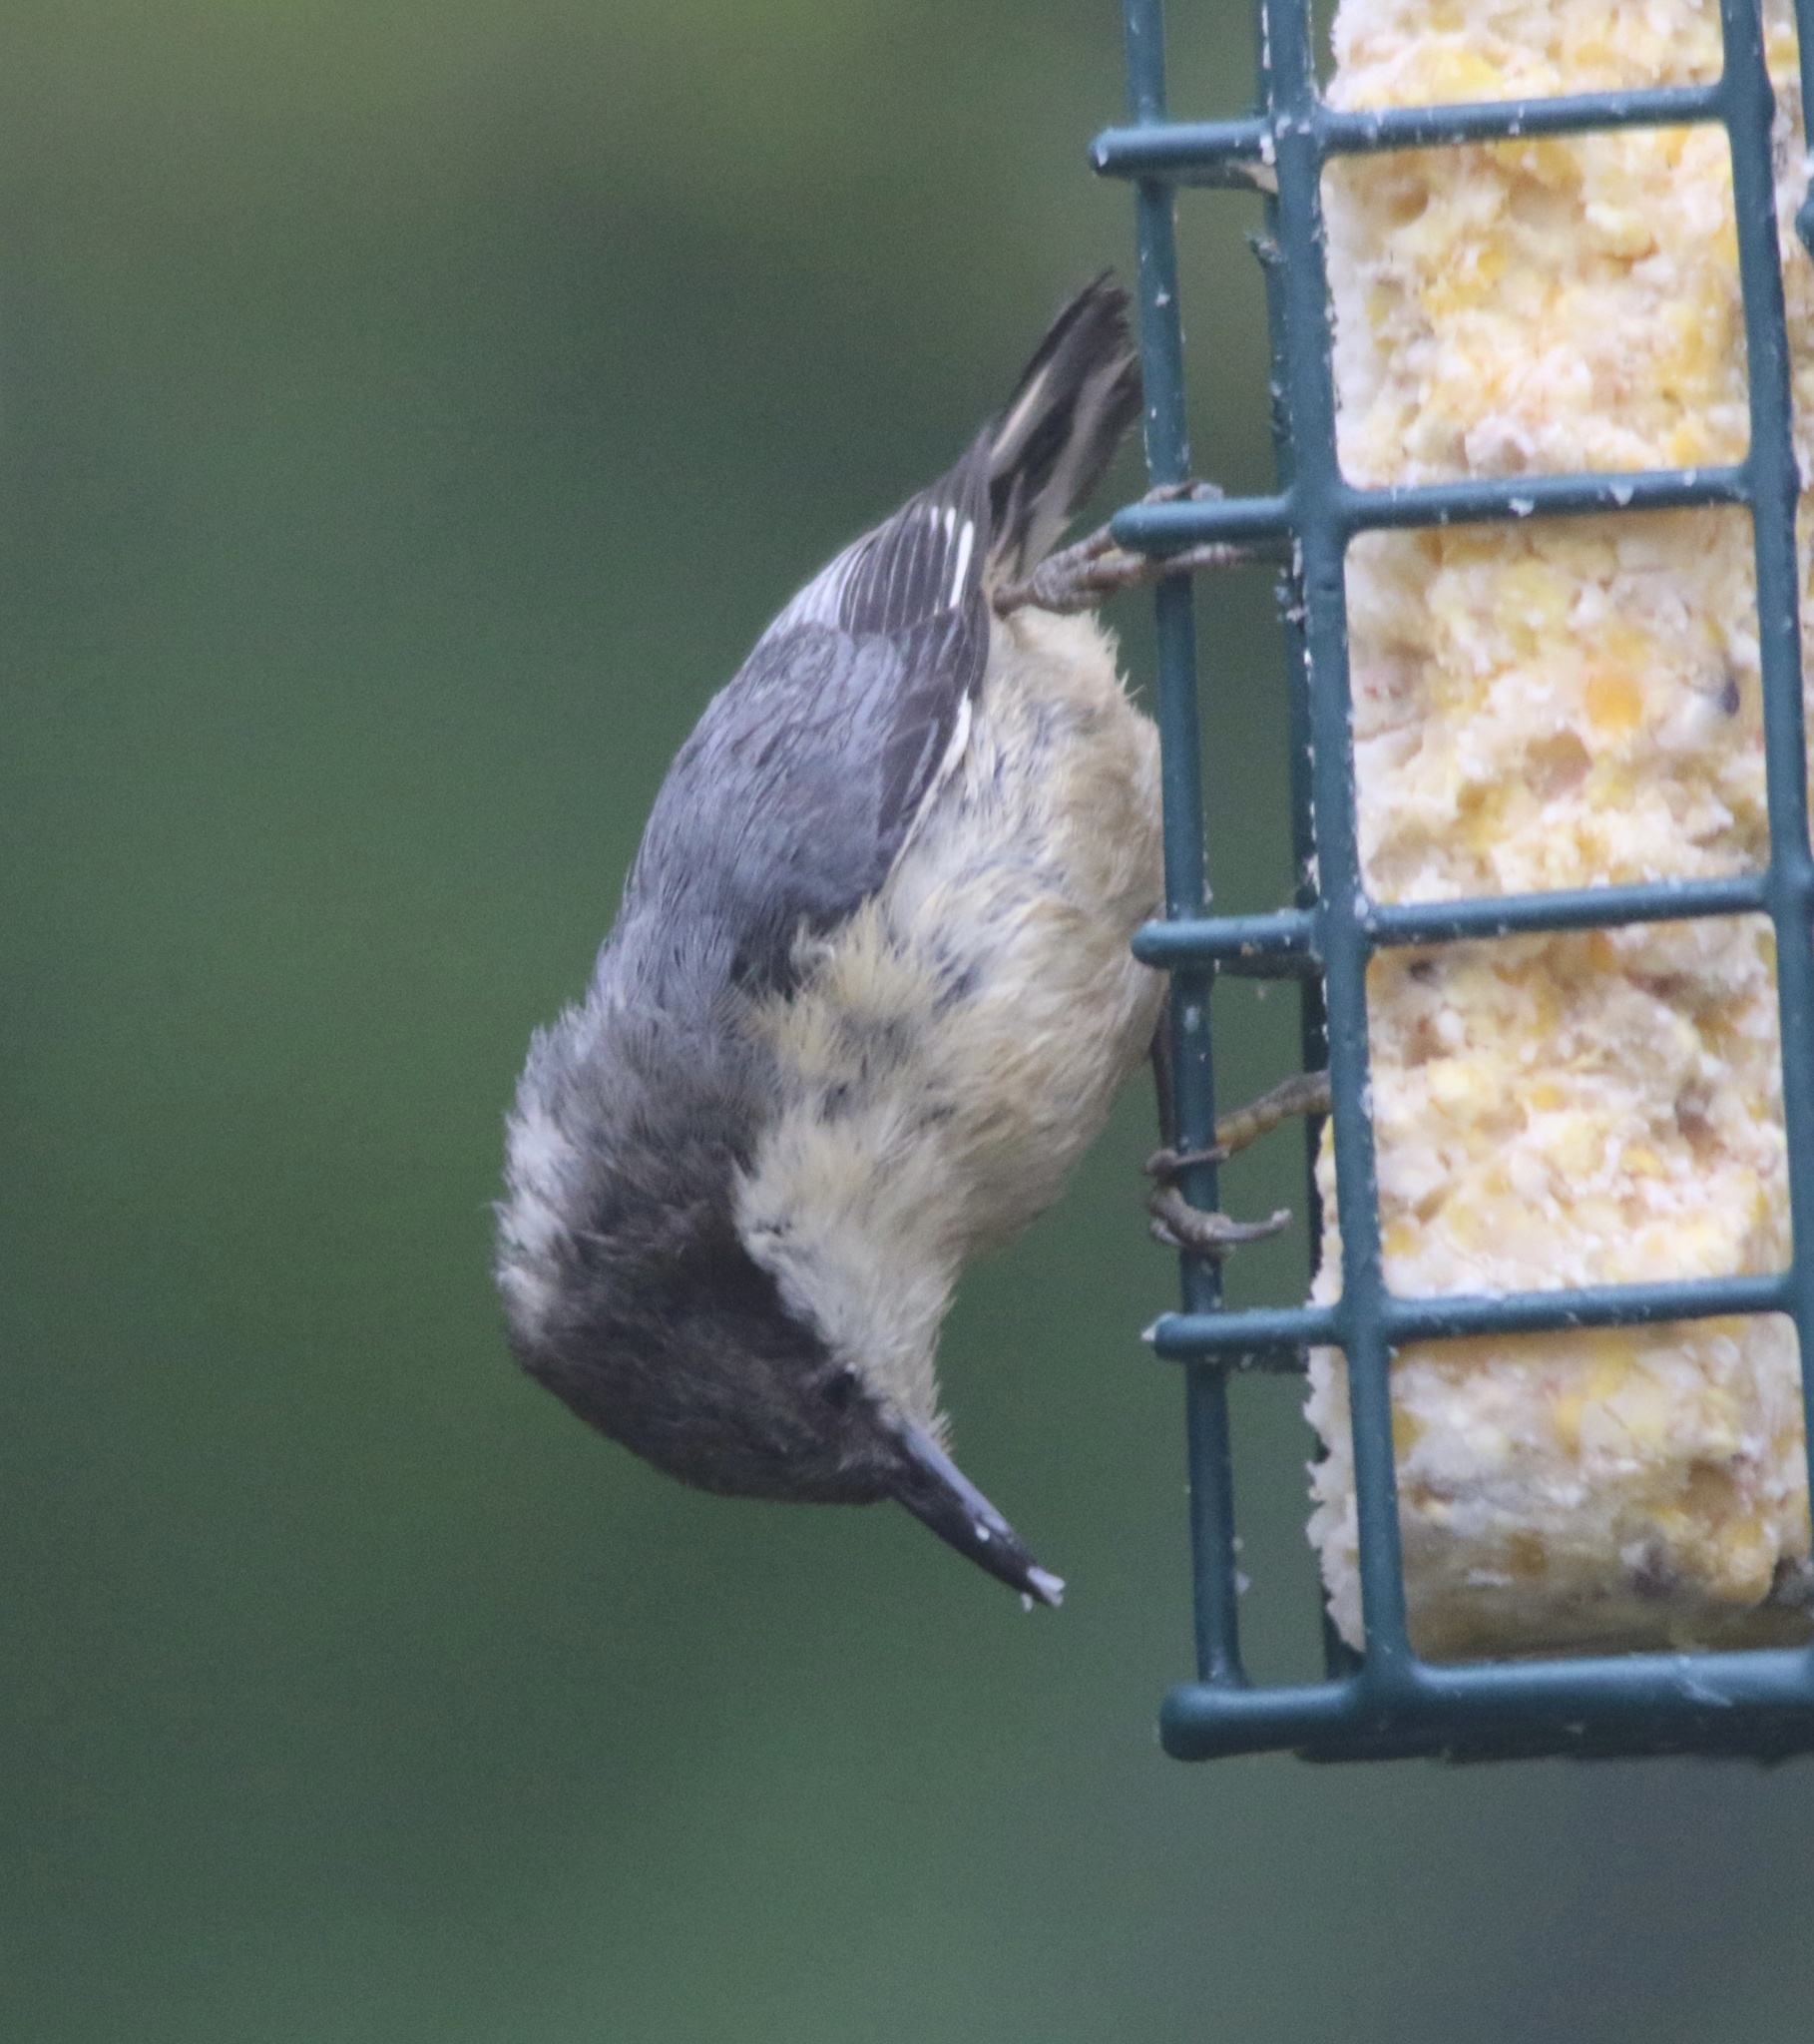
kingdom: Animalia
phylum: Chordata
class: Aves
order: Passeriformes
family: Sittidae
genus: Sitta
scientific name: Sitta pygmaea
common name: Pygmy nuthatch
